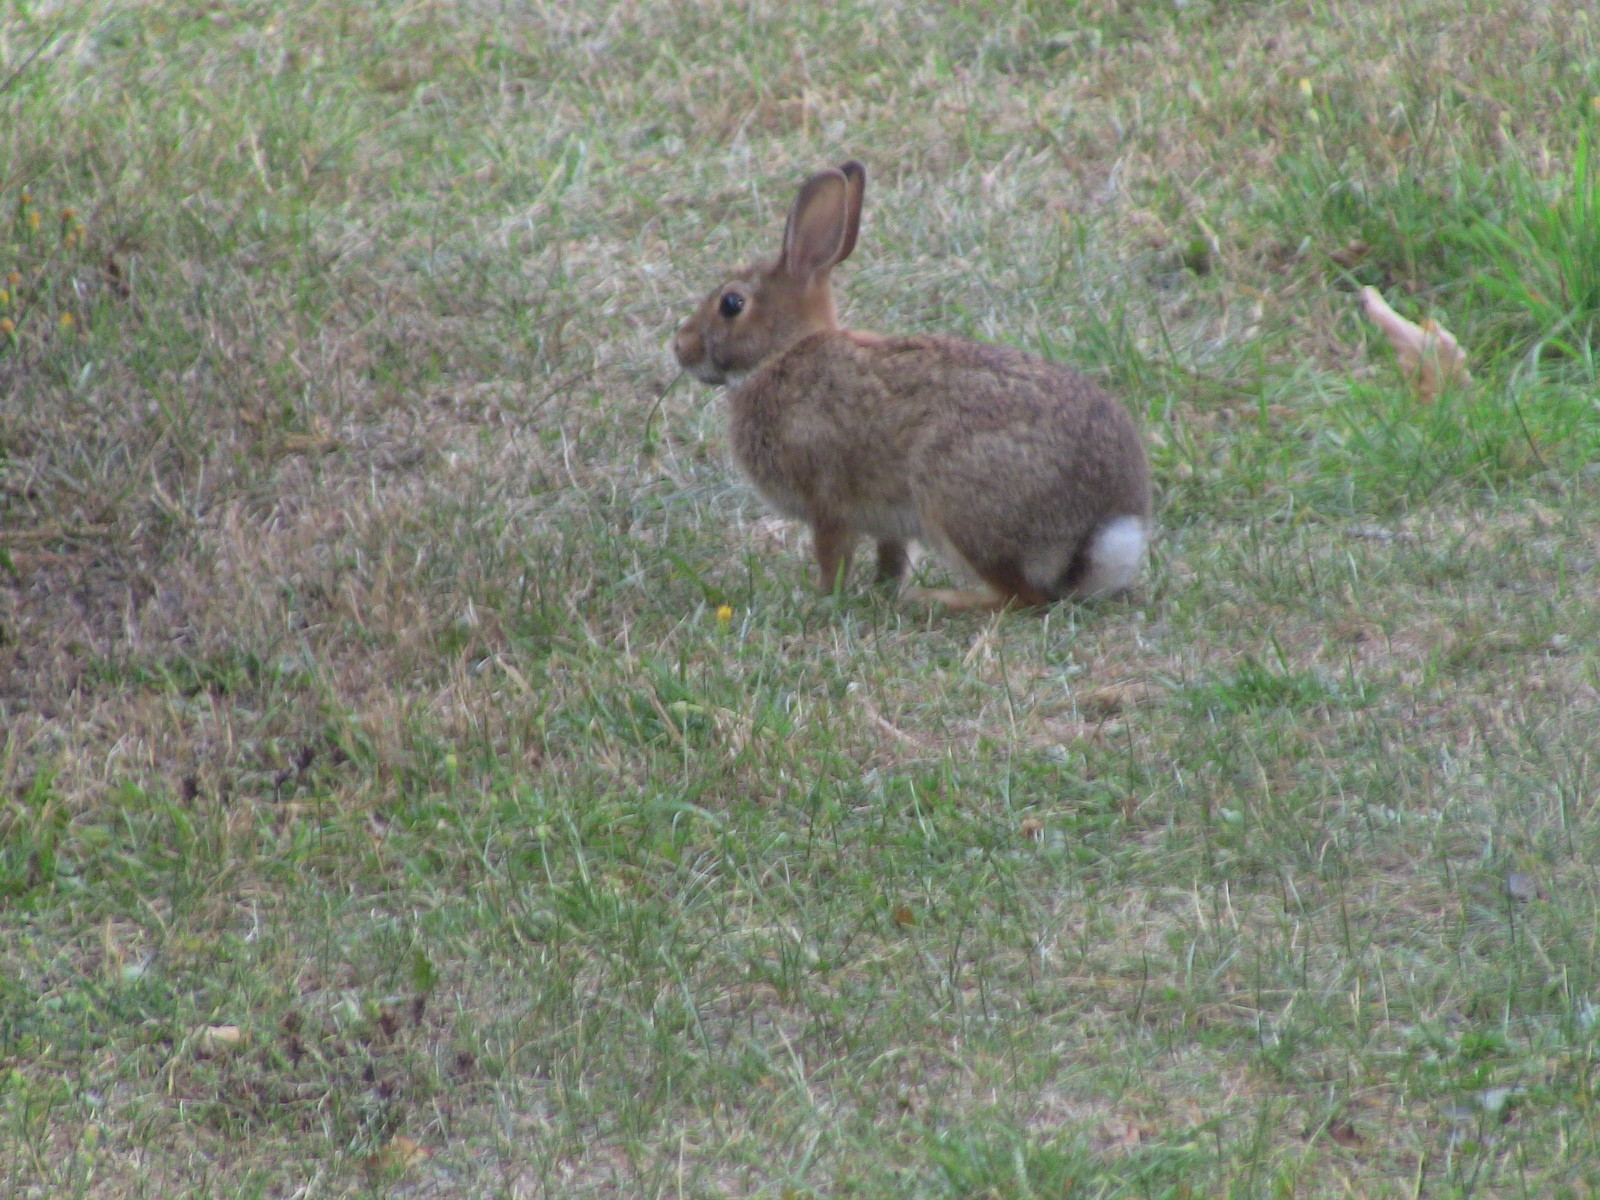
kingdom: Animalia
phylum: Chordata
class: Mammalia
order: Lagomorpha
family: Leporidae
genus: Sylvilagus
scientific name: Sylvilagus floridanus
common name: Eastern cottontail
